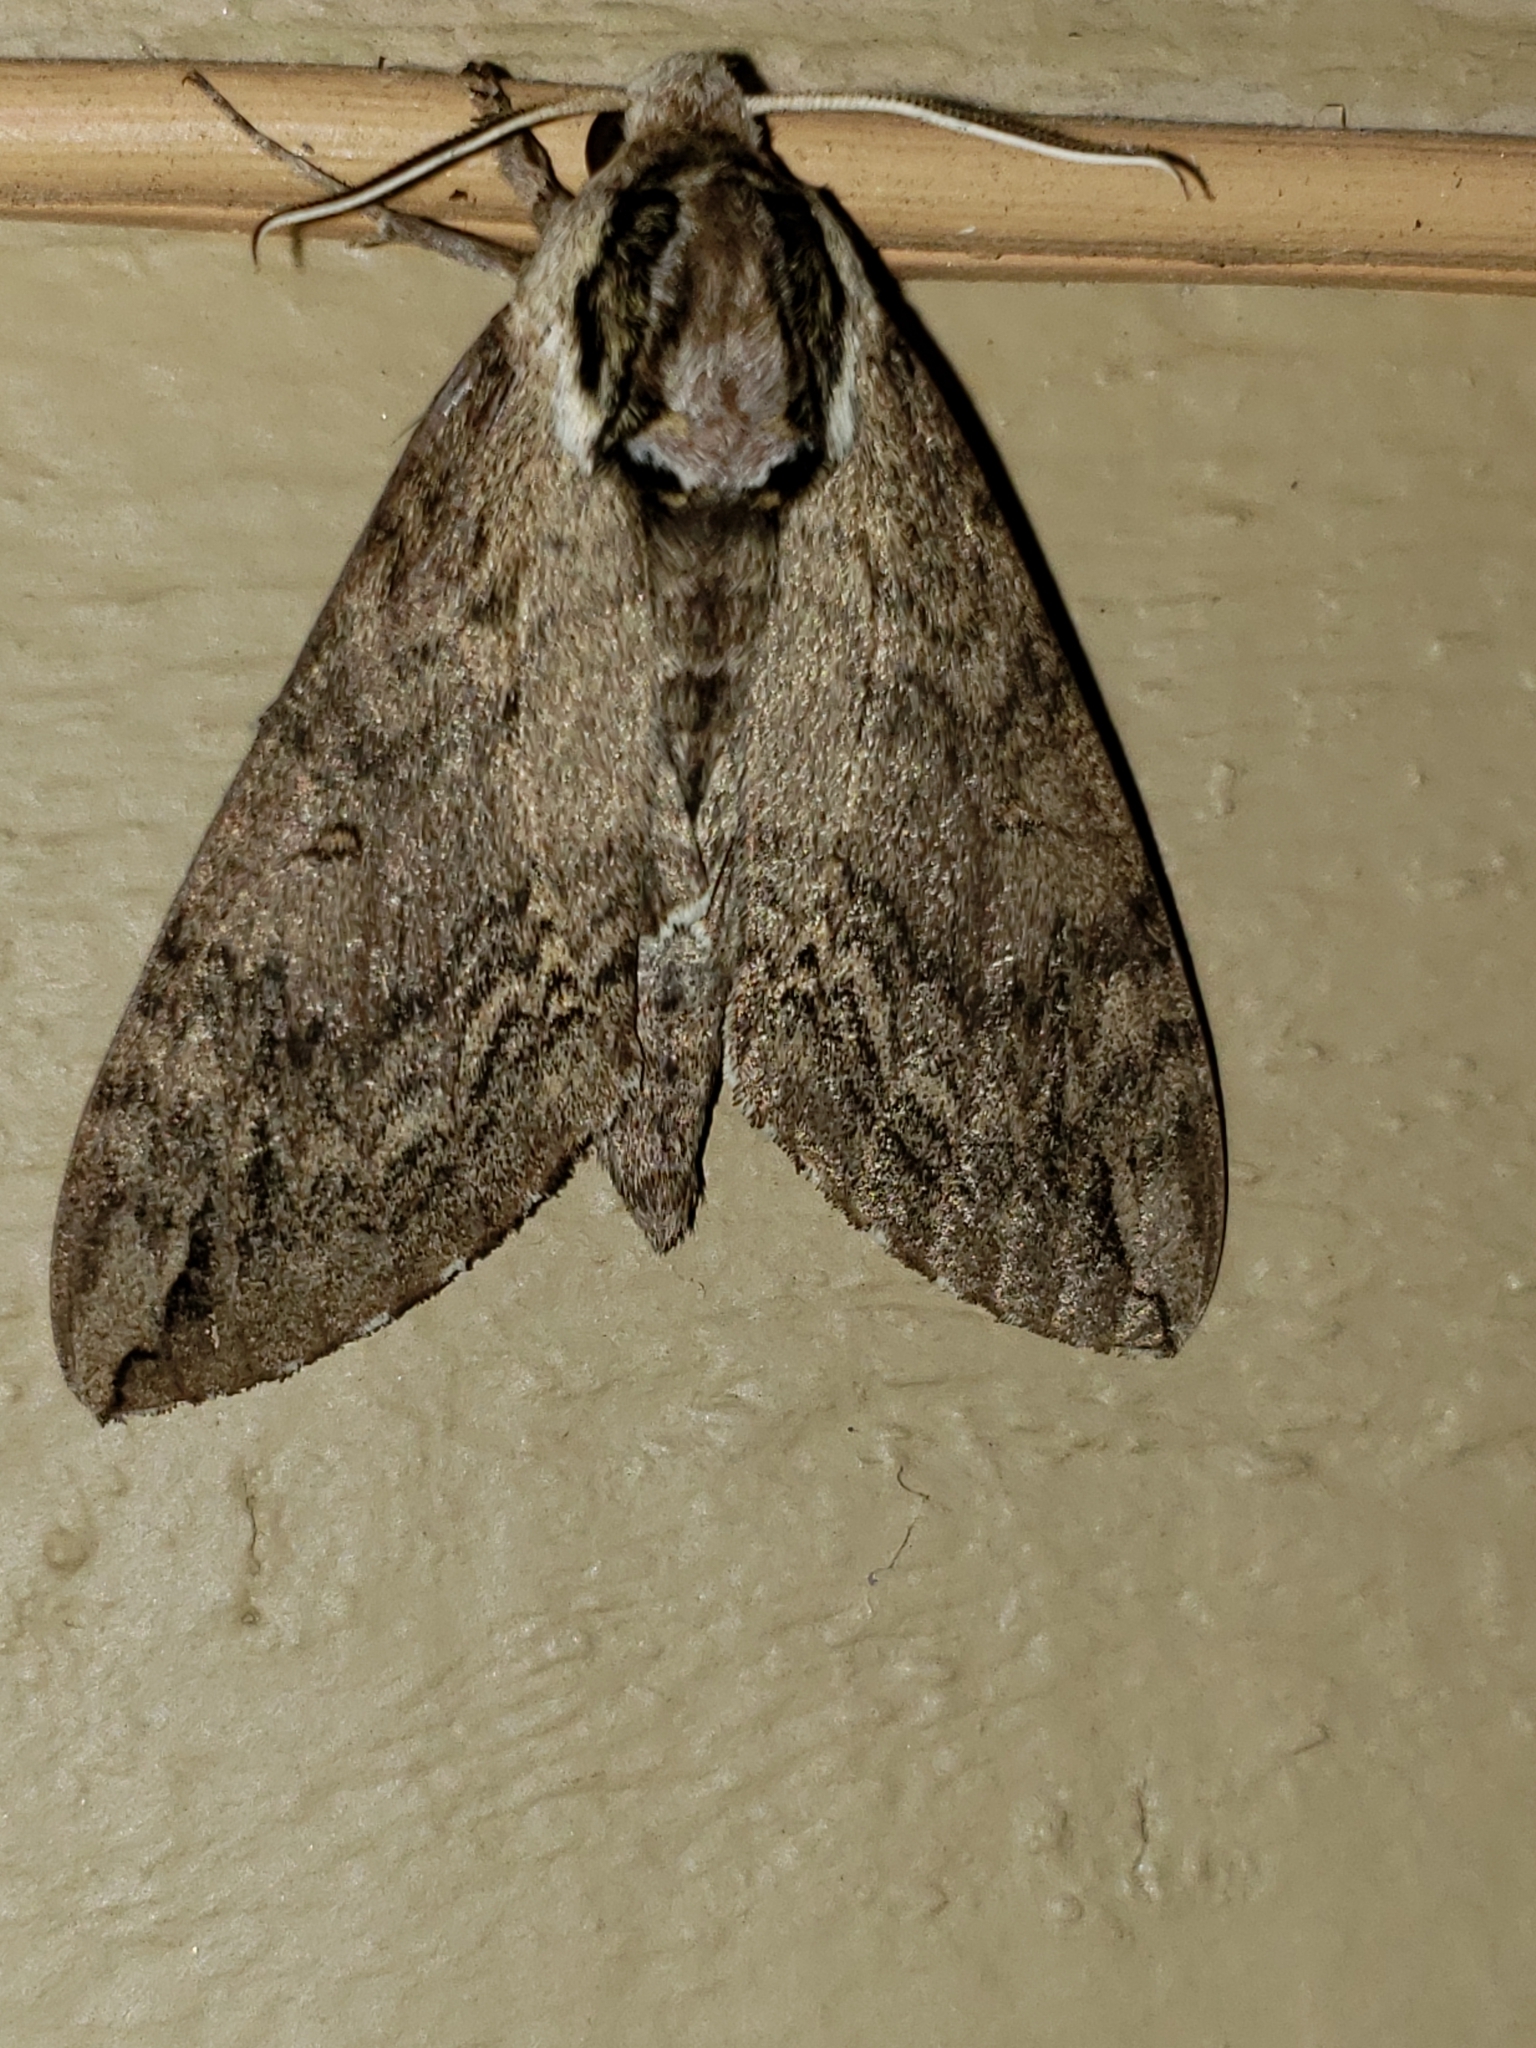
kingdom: Animalia
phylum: Arthropoda
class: Insecta
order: Lepidoptera
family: Sphingidae
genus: Ceratomia
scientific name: Ceratomia catalpae
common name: Catalpa hornworm
